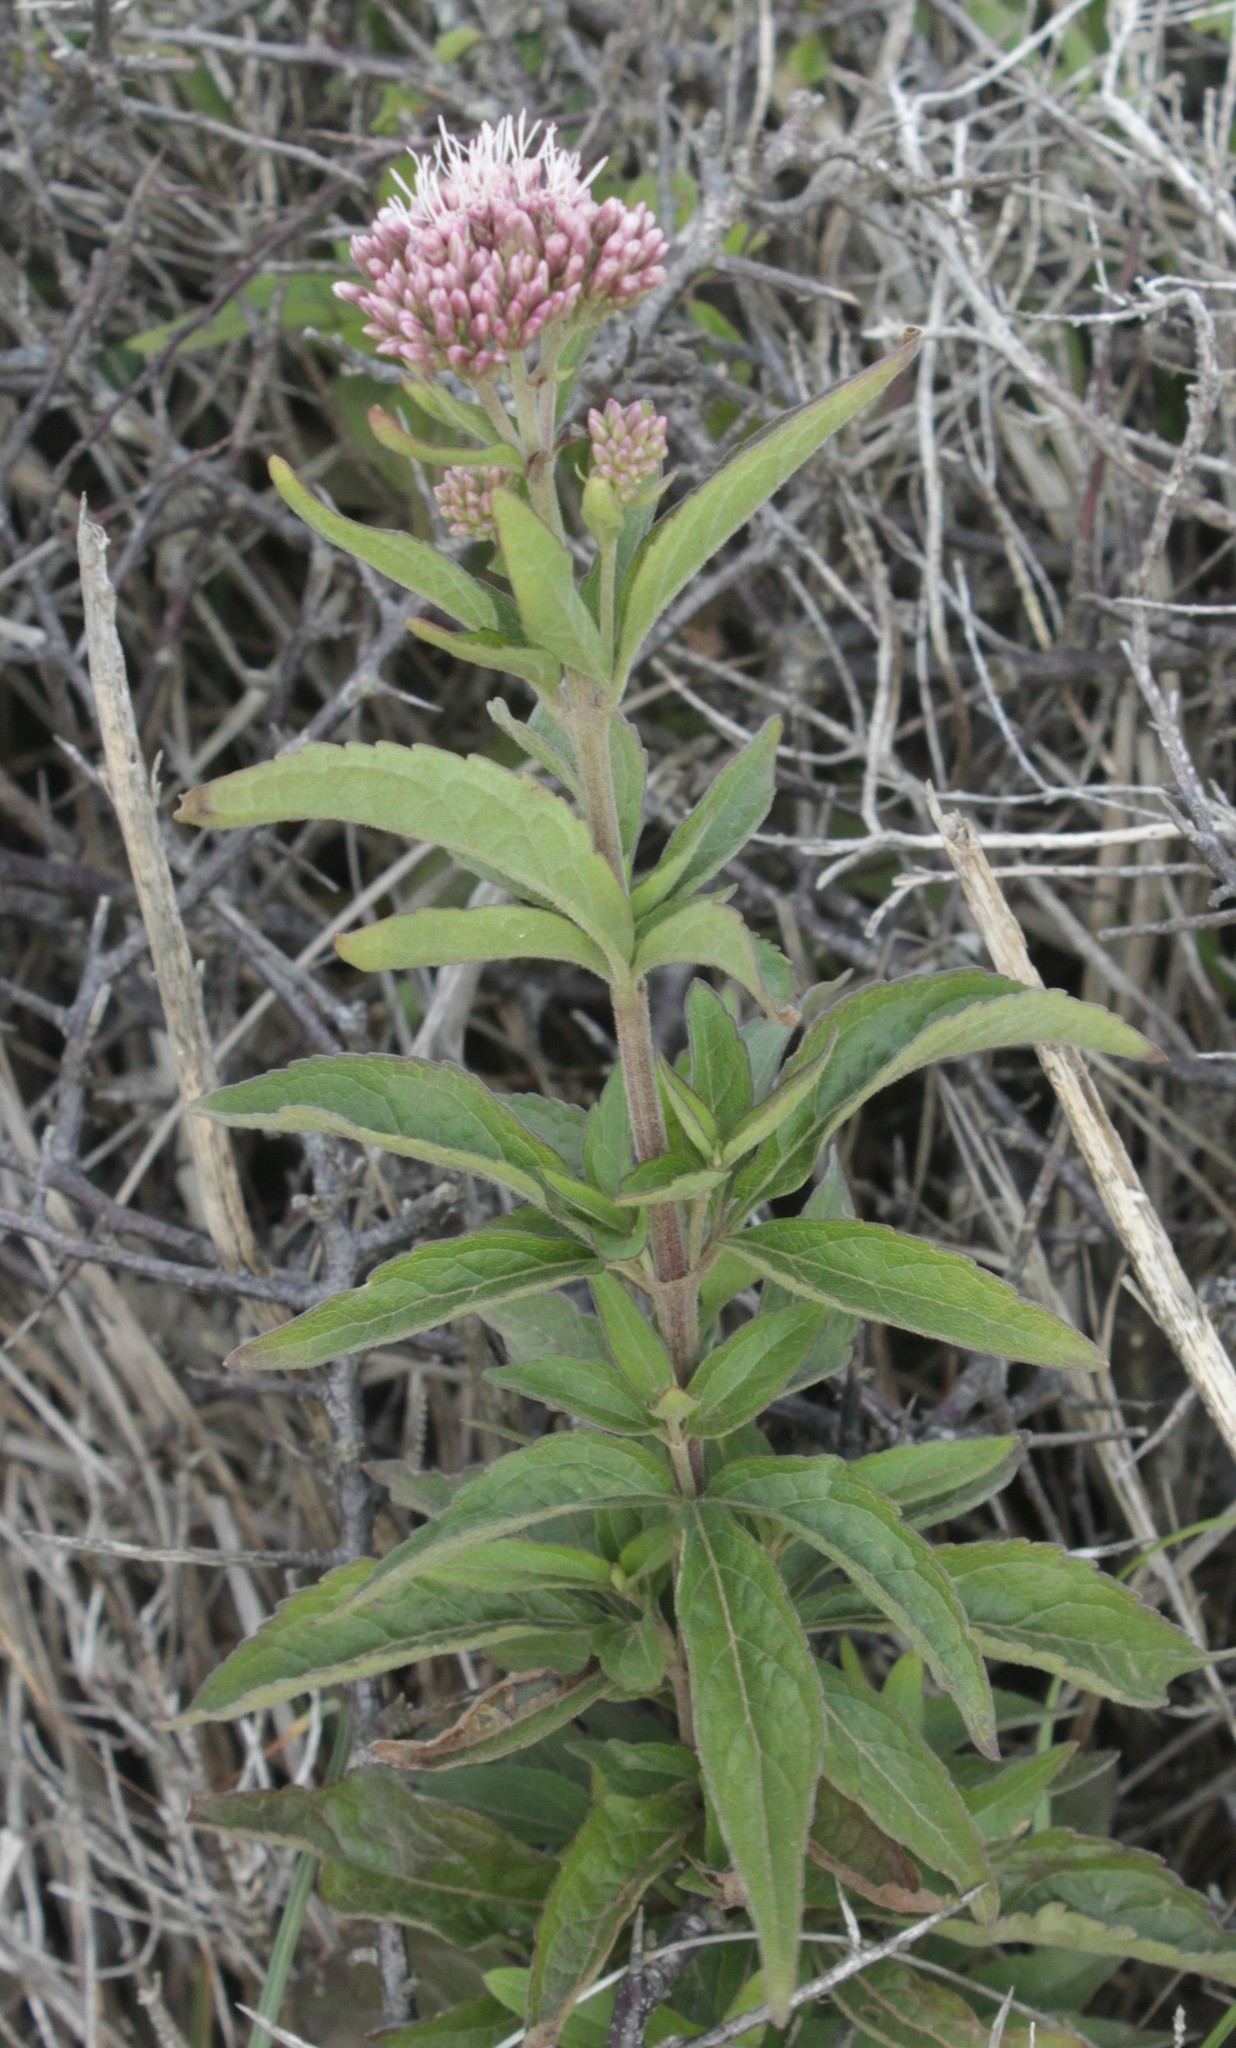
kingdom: Plantae
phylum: Tracheophyta
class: Magnoliopsida
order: Asterales
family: Asteraceae
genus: Eupatorium
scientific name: Eupatorium cannabinum
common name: Hemp-agrimony
